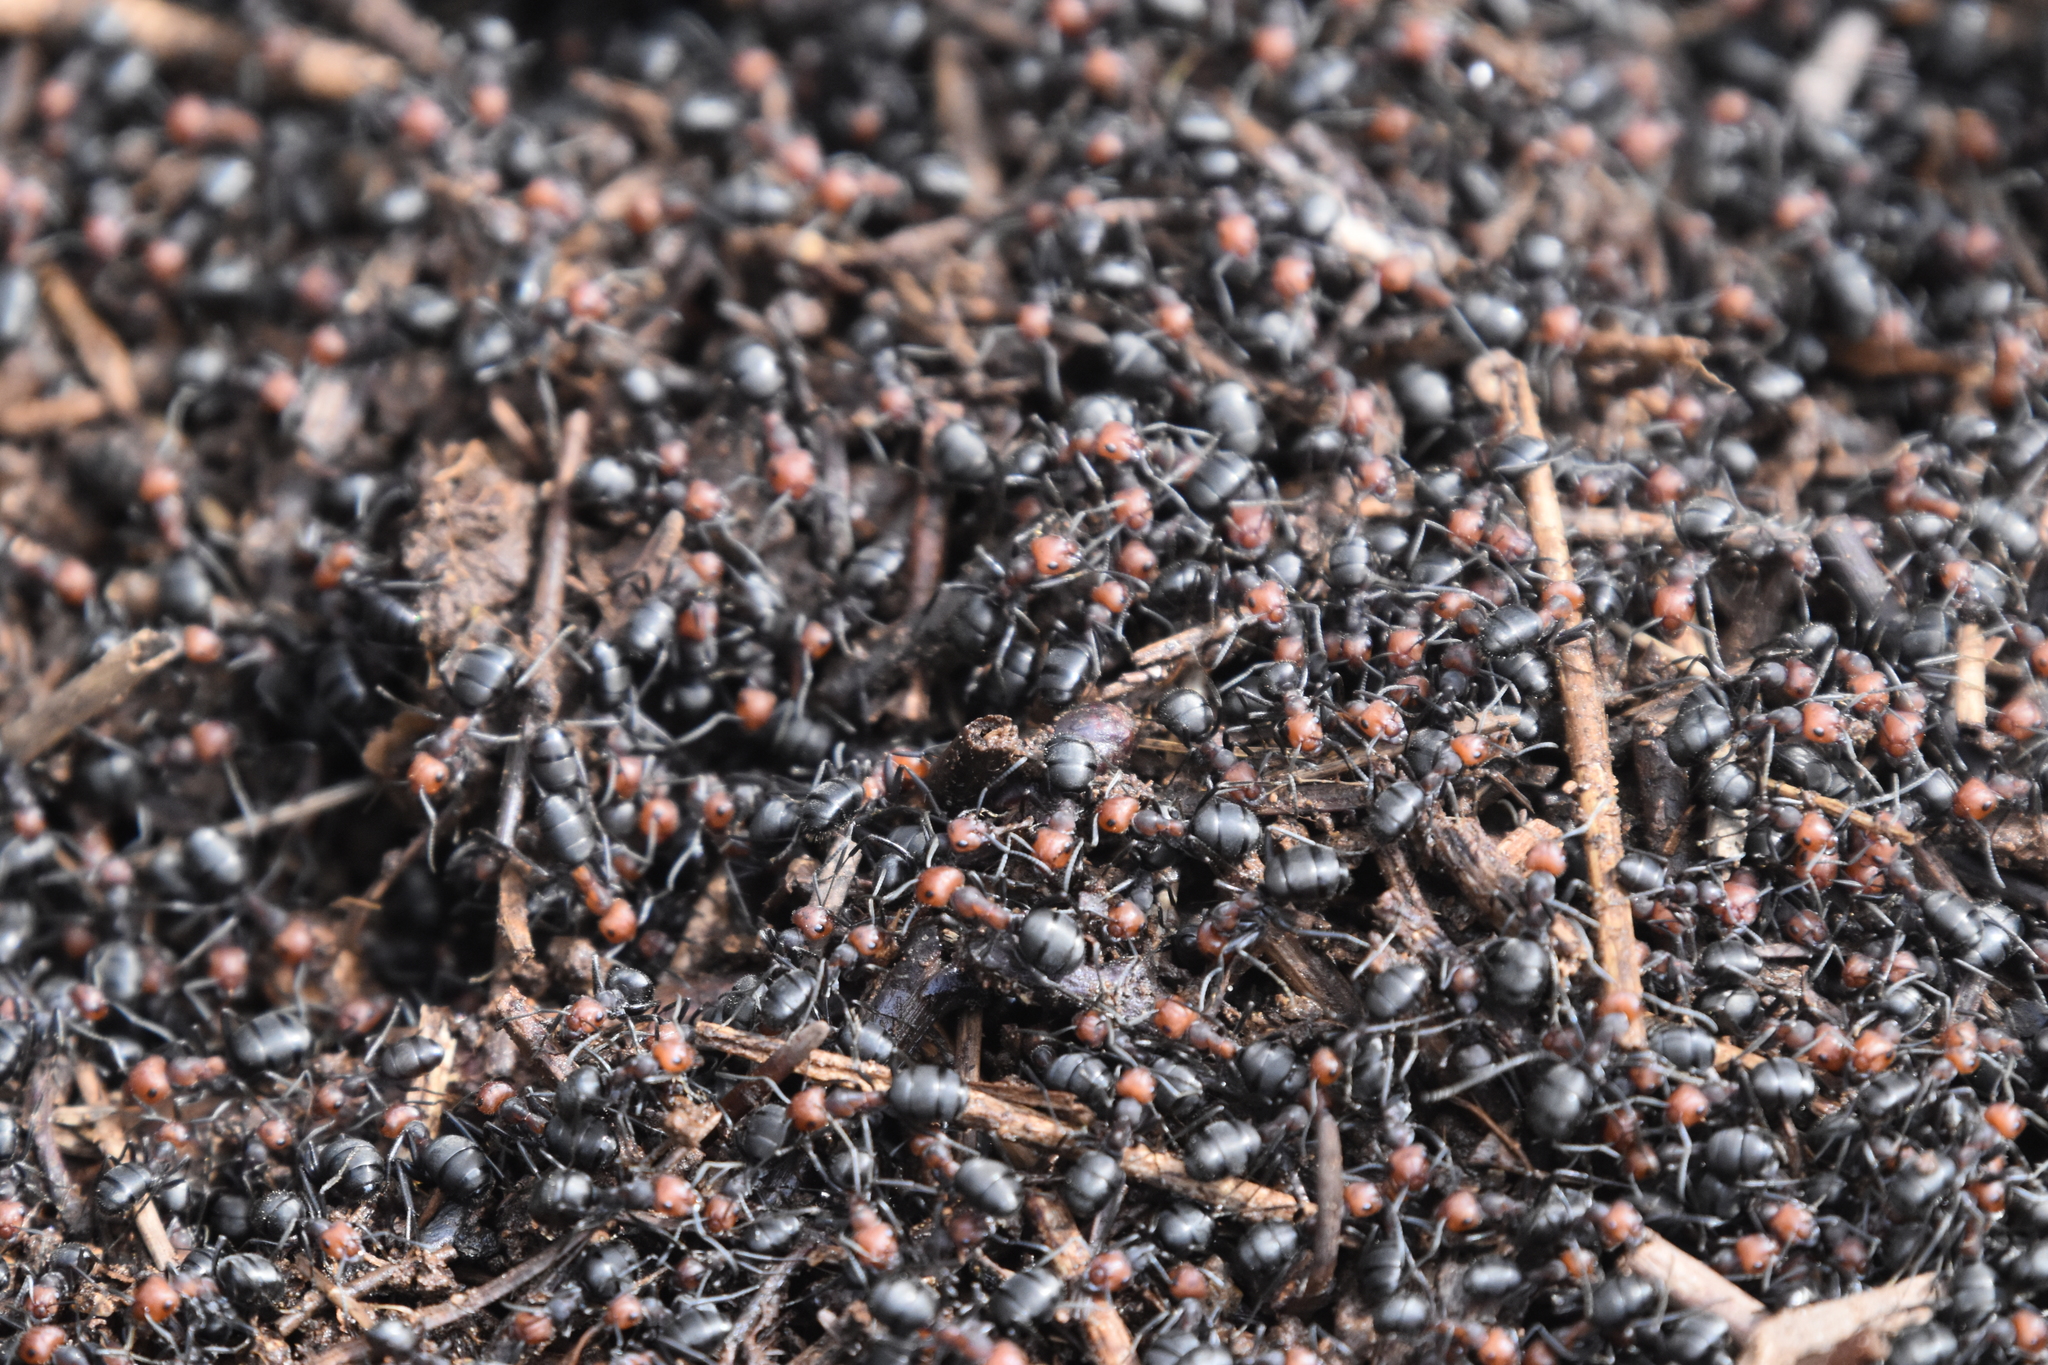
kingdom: Animalia
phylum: Arthropoda
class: Insecta
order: Hymenoptera
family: Formicidae
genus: Formica
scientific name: Formica obscuripes
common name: Western thatching ant
